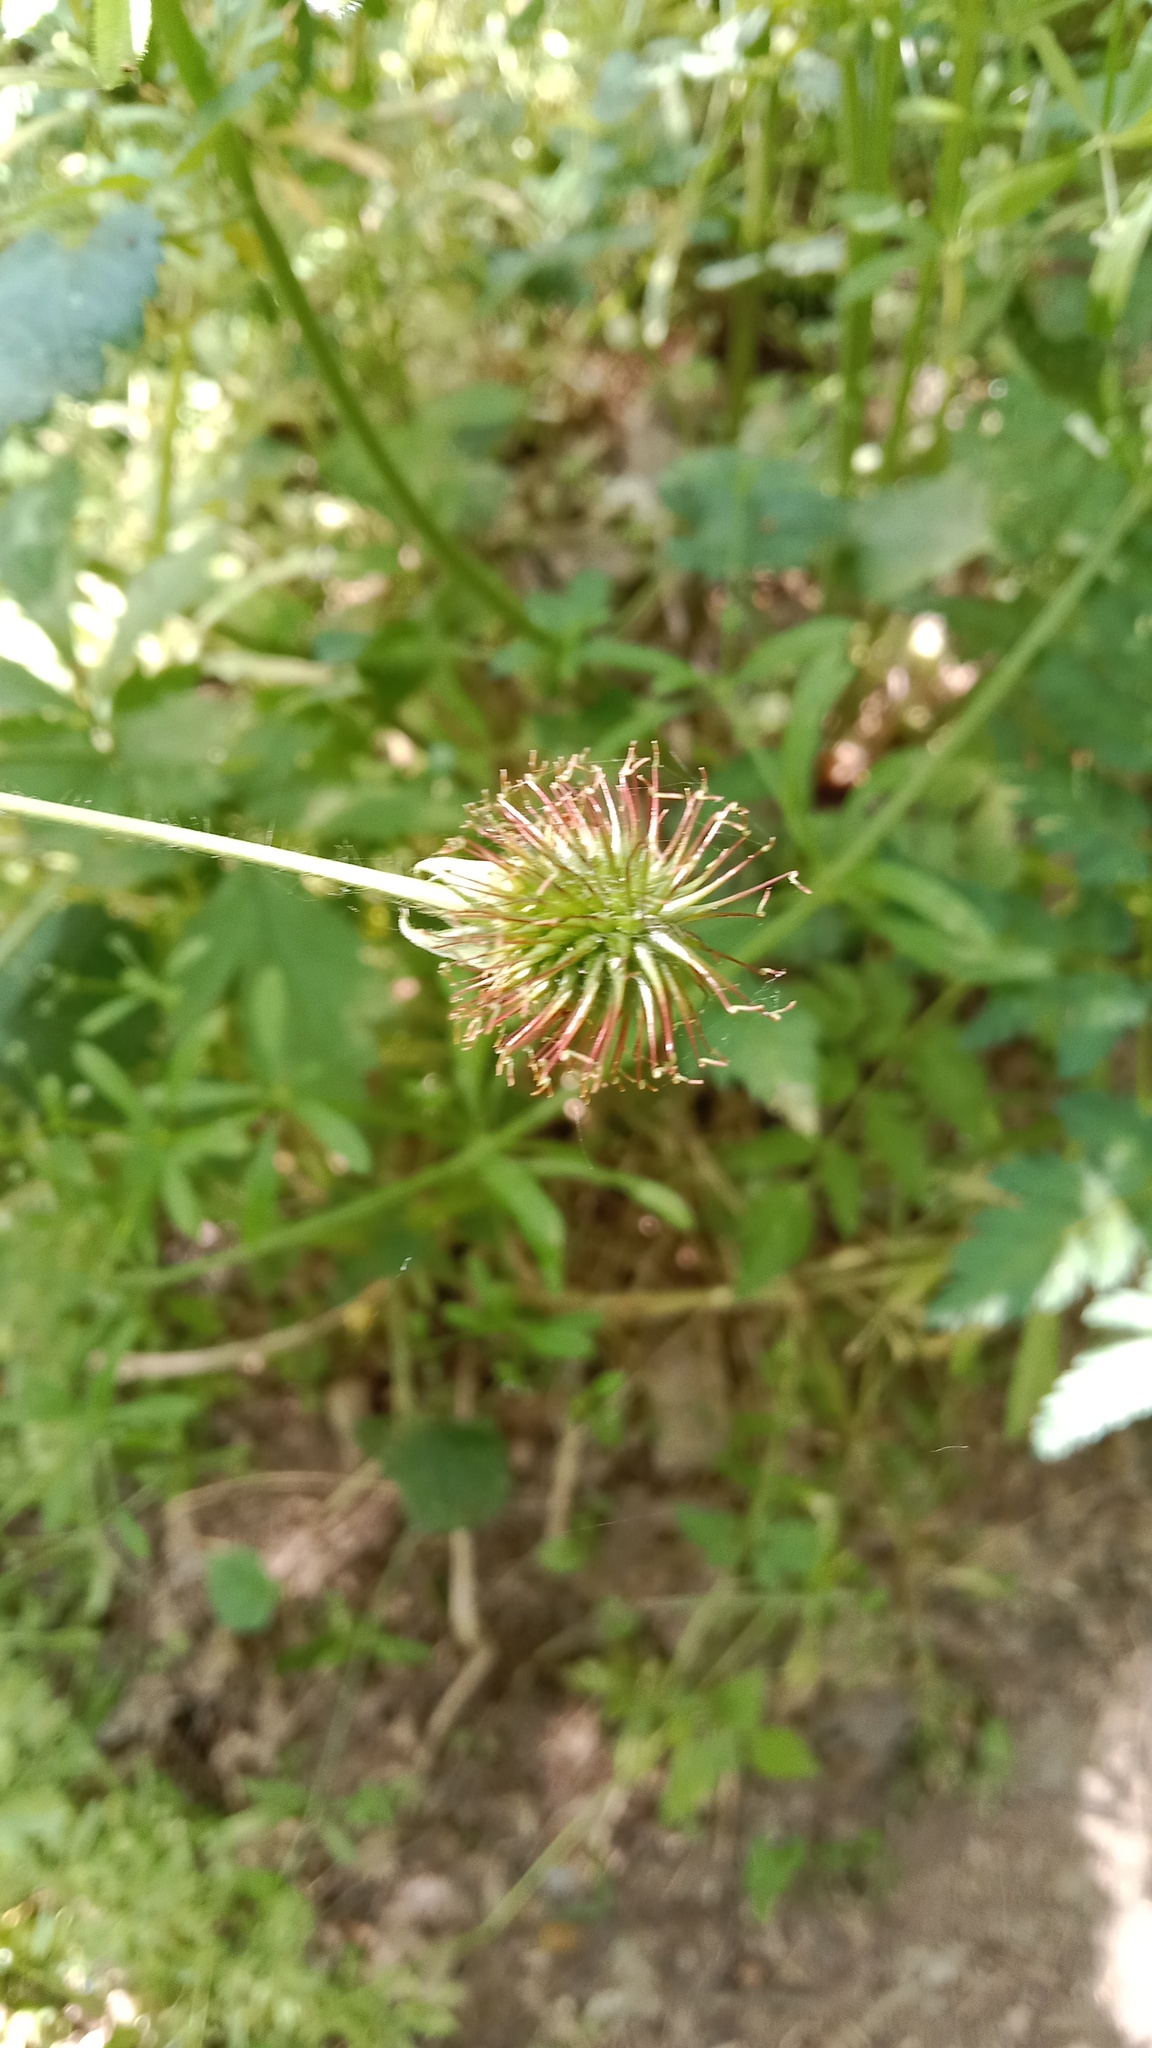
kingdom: Plantae
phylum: Tracheophyta
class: Magnoliopsida
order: Rosales
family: Rosaceae
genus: Geum
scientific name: Geum urbanum
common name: Wood avens
